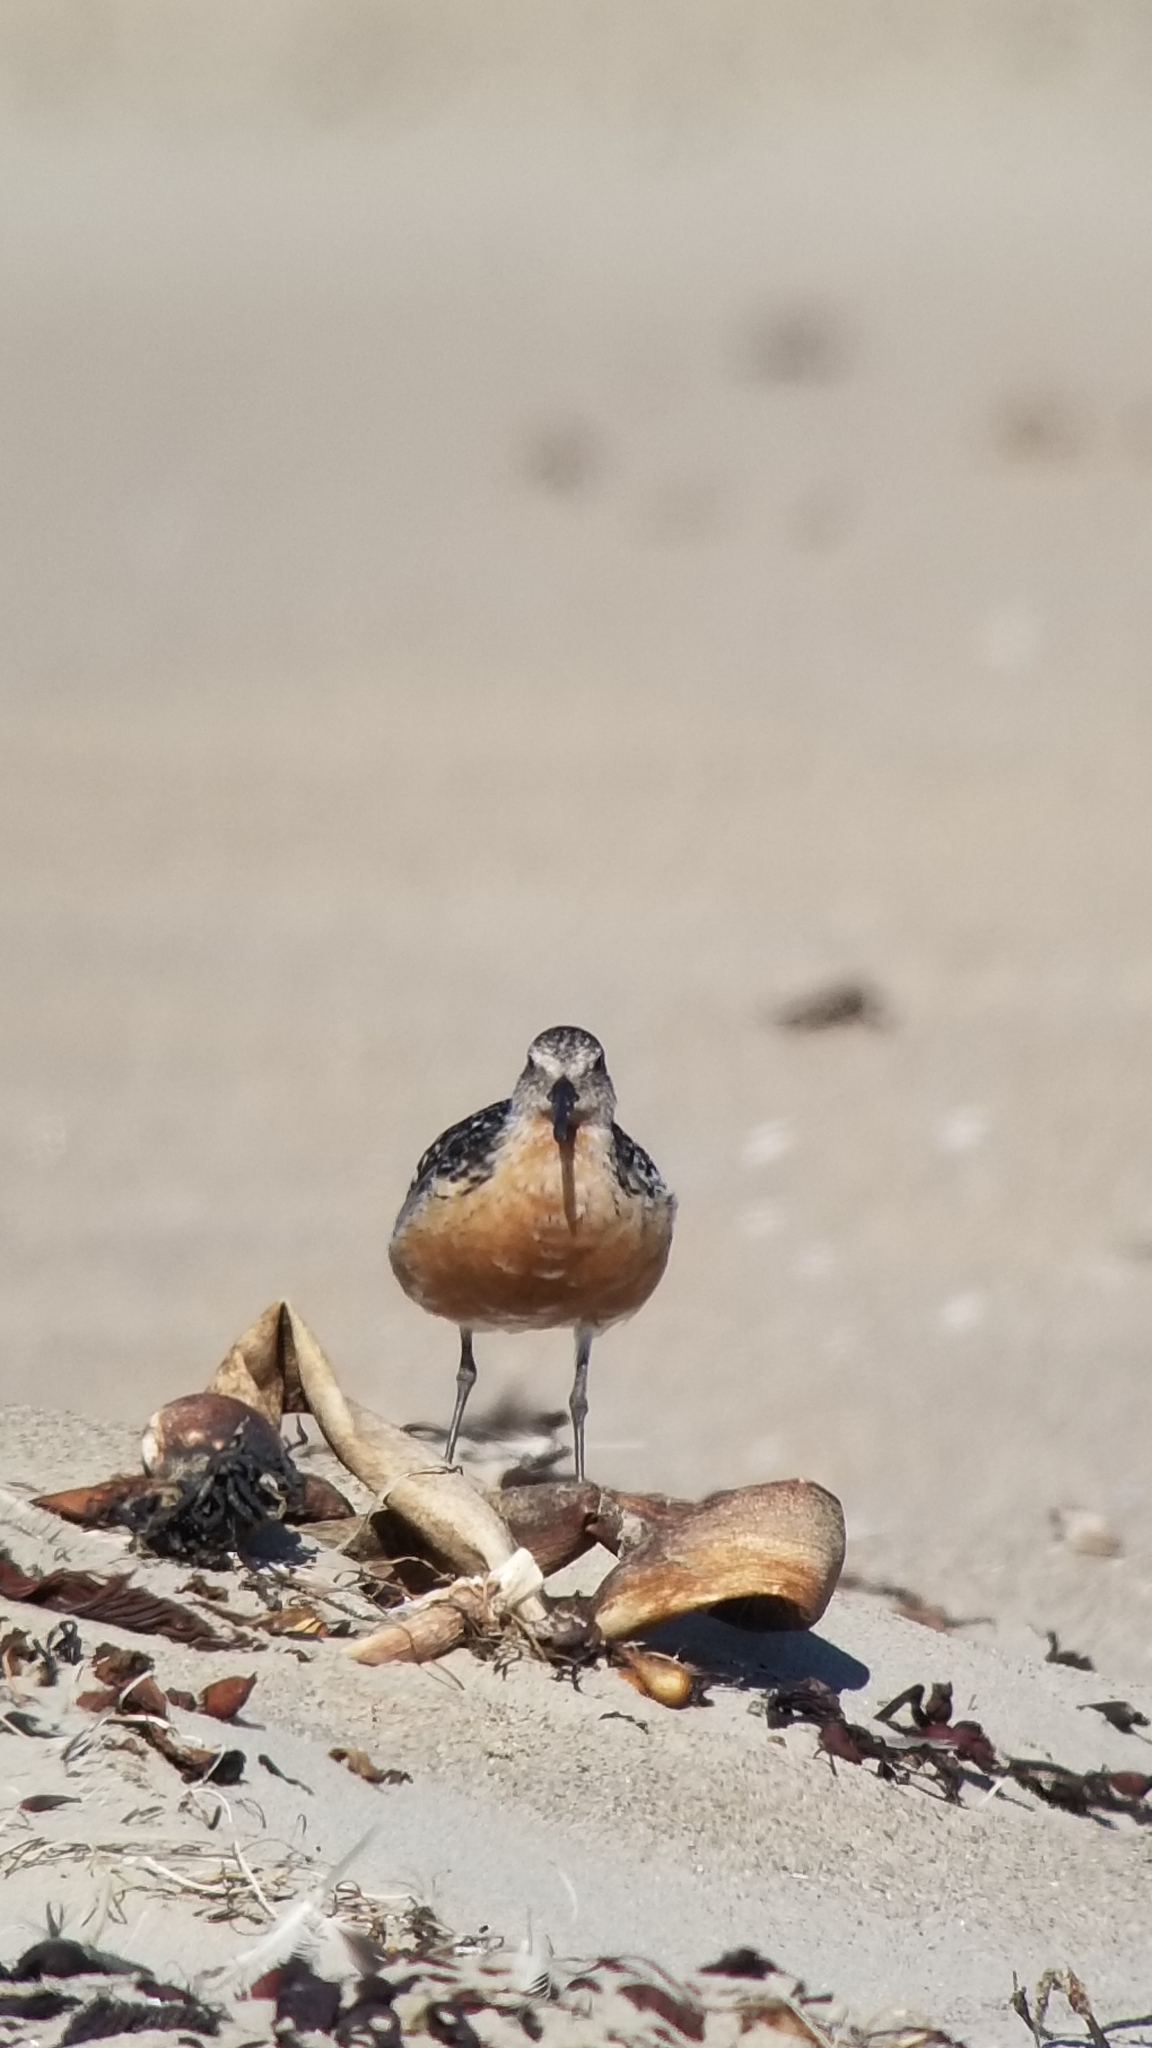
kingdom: Animalia
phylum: Chordata
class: Aves
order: Charadriiformes
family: Scolopacidae
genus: Calidris
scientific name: Calidris canutus
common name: Red knot
